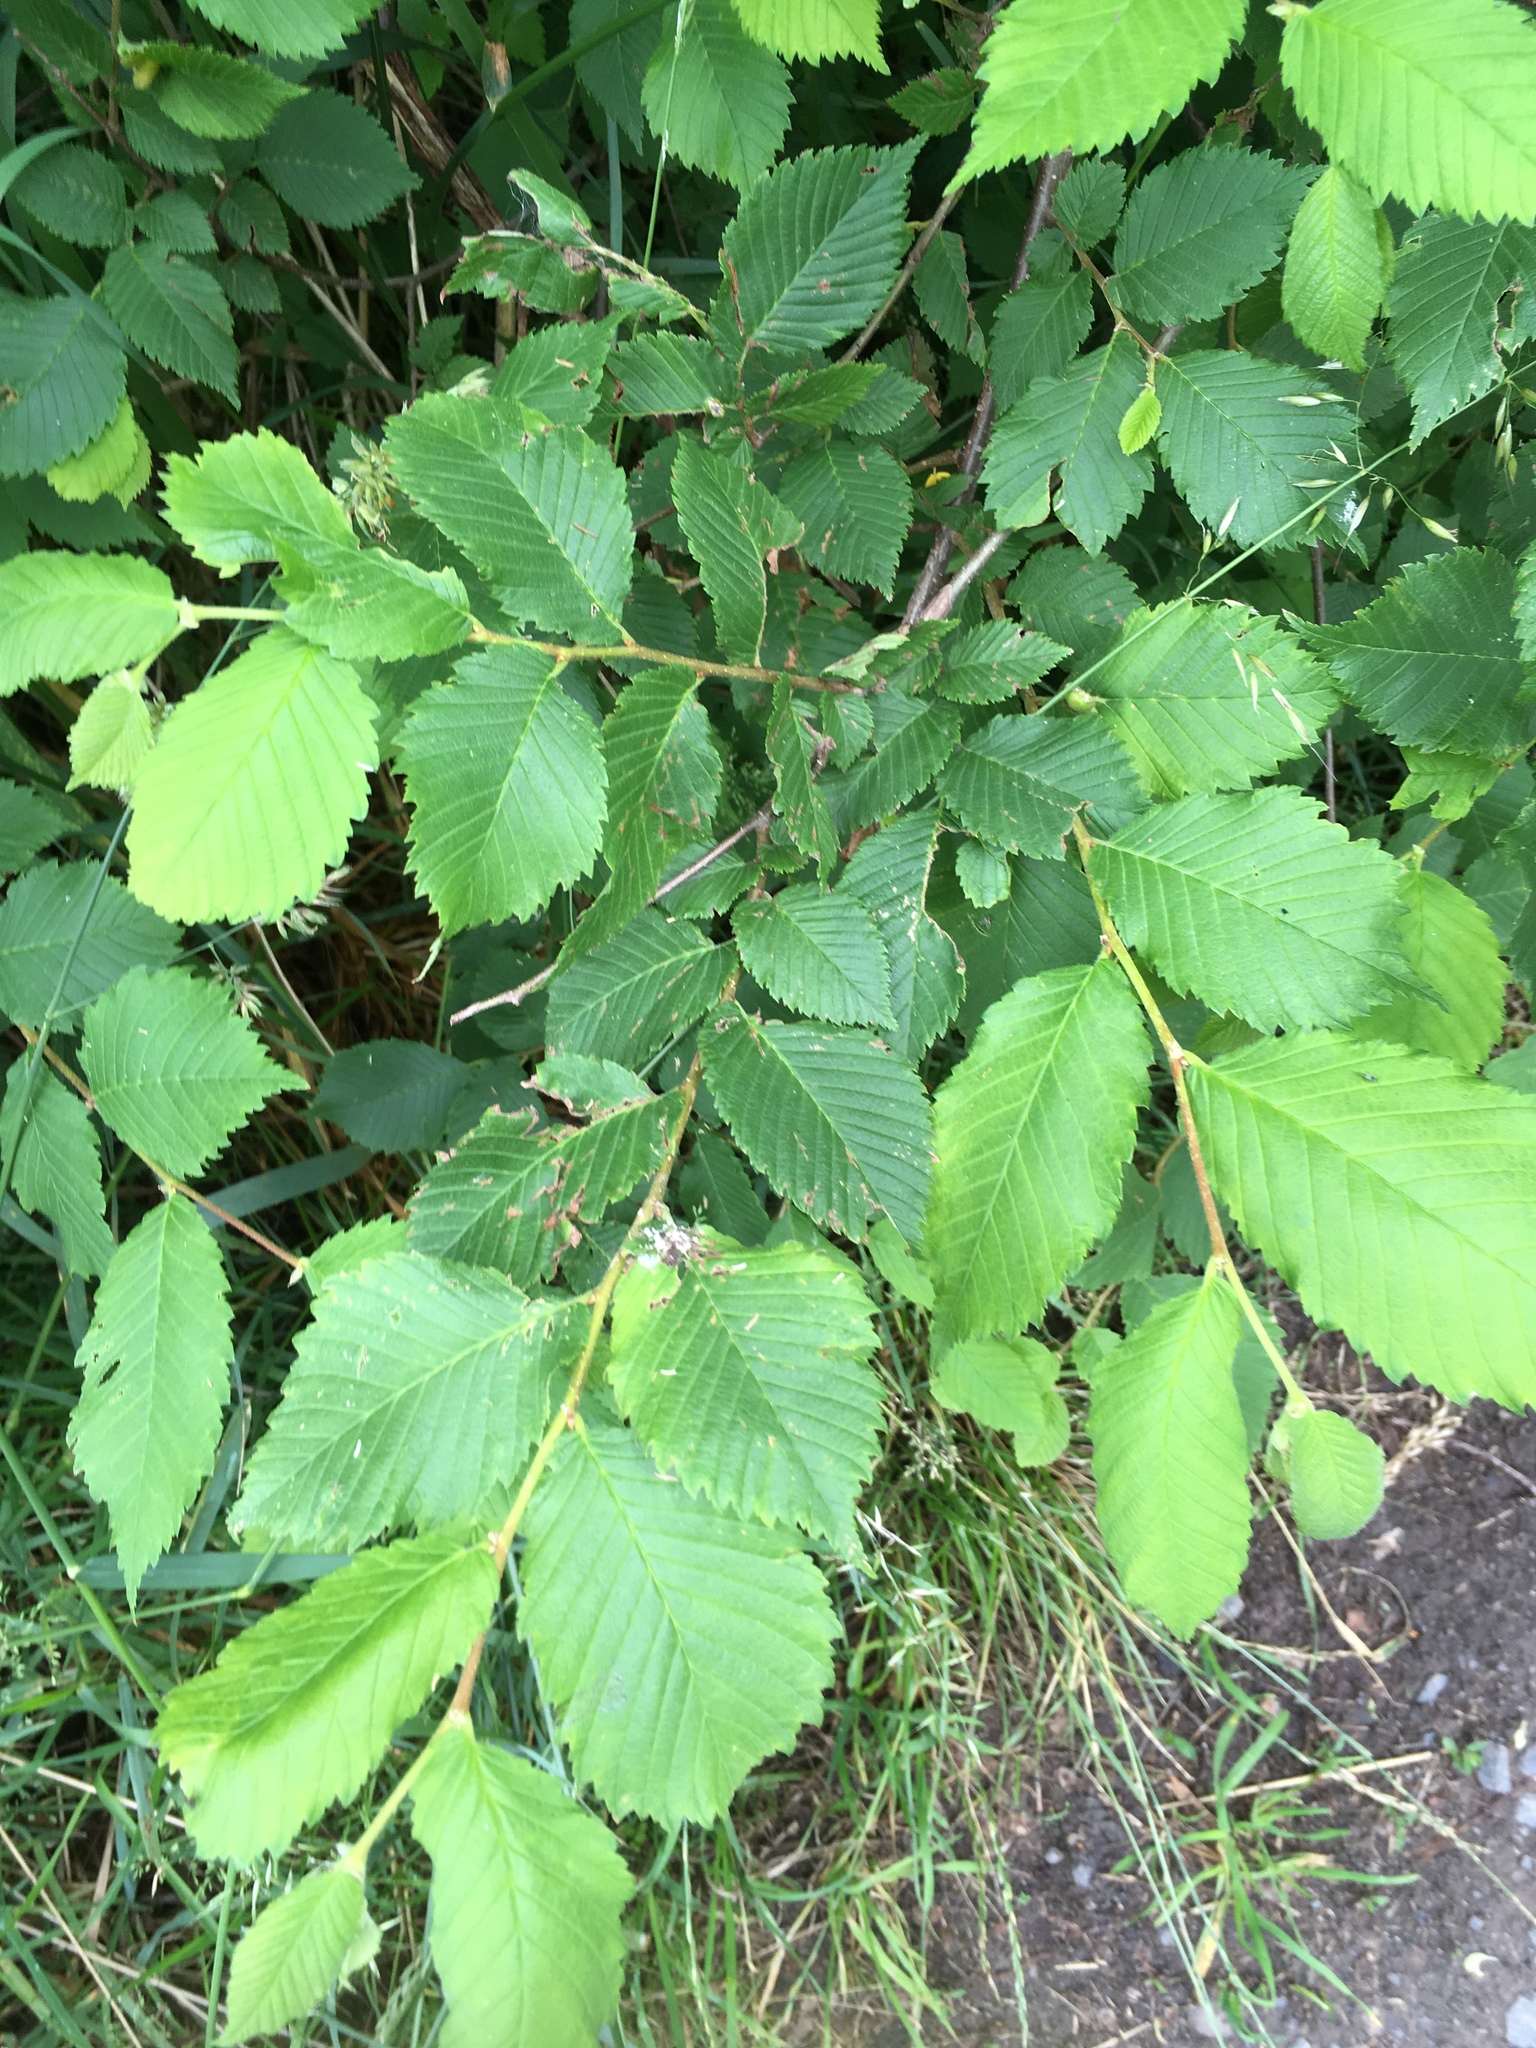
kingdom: Plantae
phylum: Tracheophyta
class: Magnoliopsida
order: Rosales
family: Ulmaceae
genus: Ulmus
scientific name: Ulmus minor
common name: Small-leaved elm
